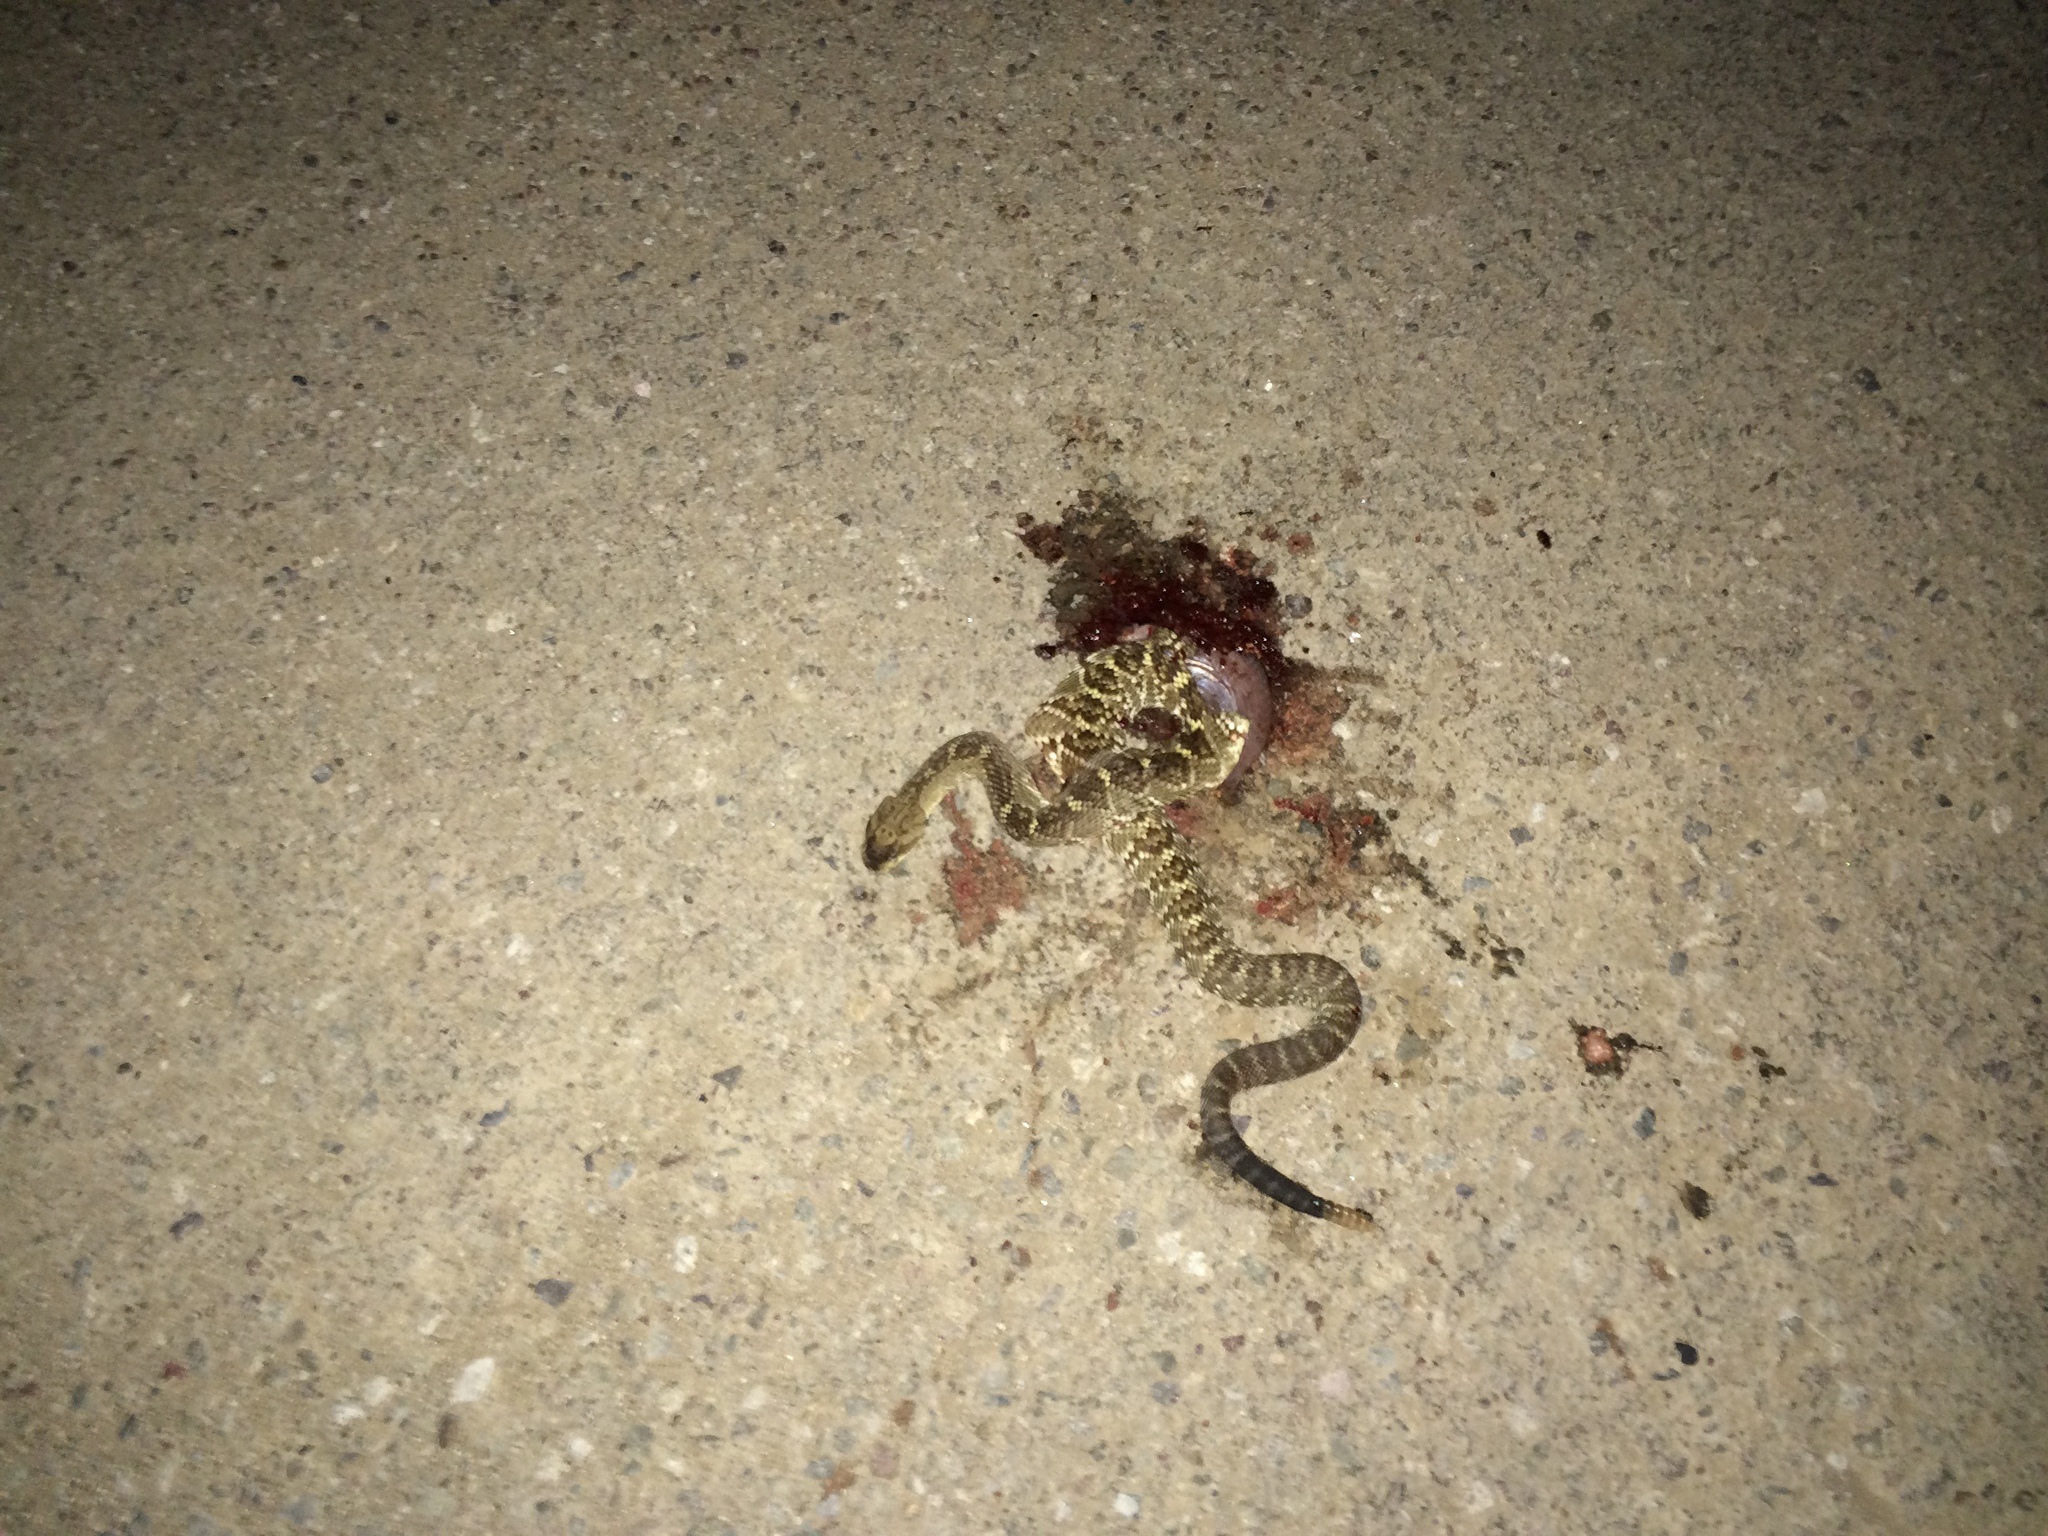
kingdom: Animalia
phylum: Chordata
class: Squamata
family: Viperidae
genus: Crotalus
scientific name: Crotalus molossus
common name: Black tailed rattlesnake
